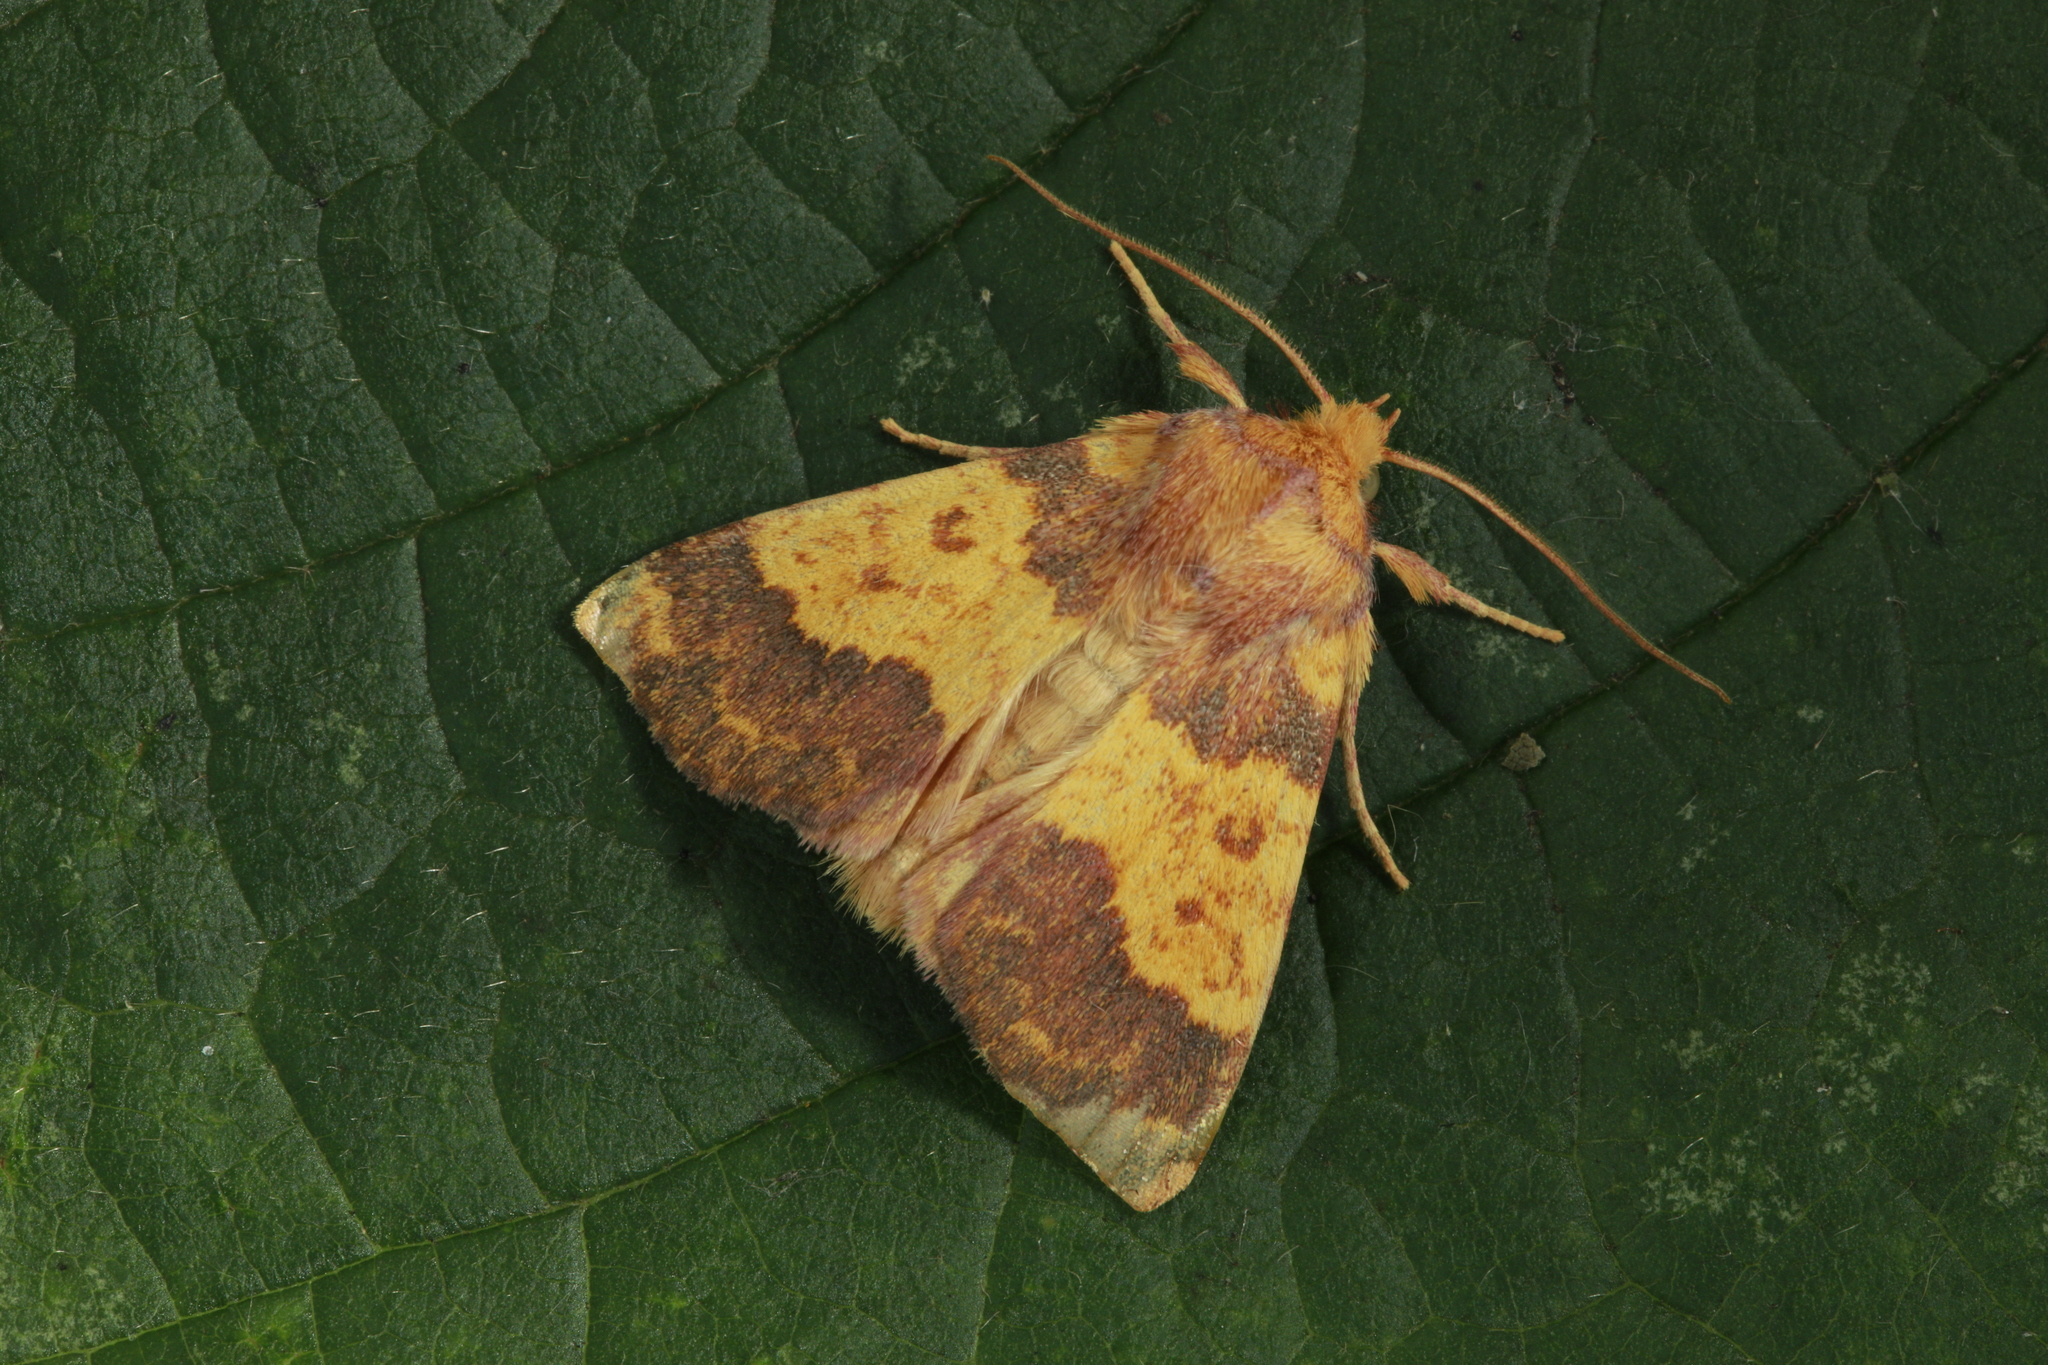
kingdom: Animalia
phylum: Arthropoda
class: Insecta
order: Lepidoptera
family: Noctuidae
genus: Tiliacea
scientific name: Tiliacea aurago
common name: Barred sallow
